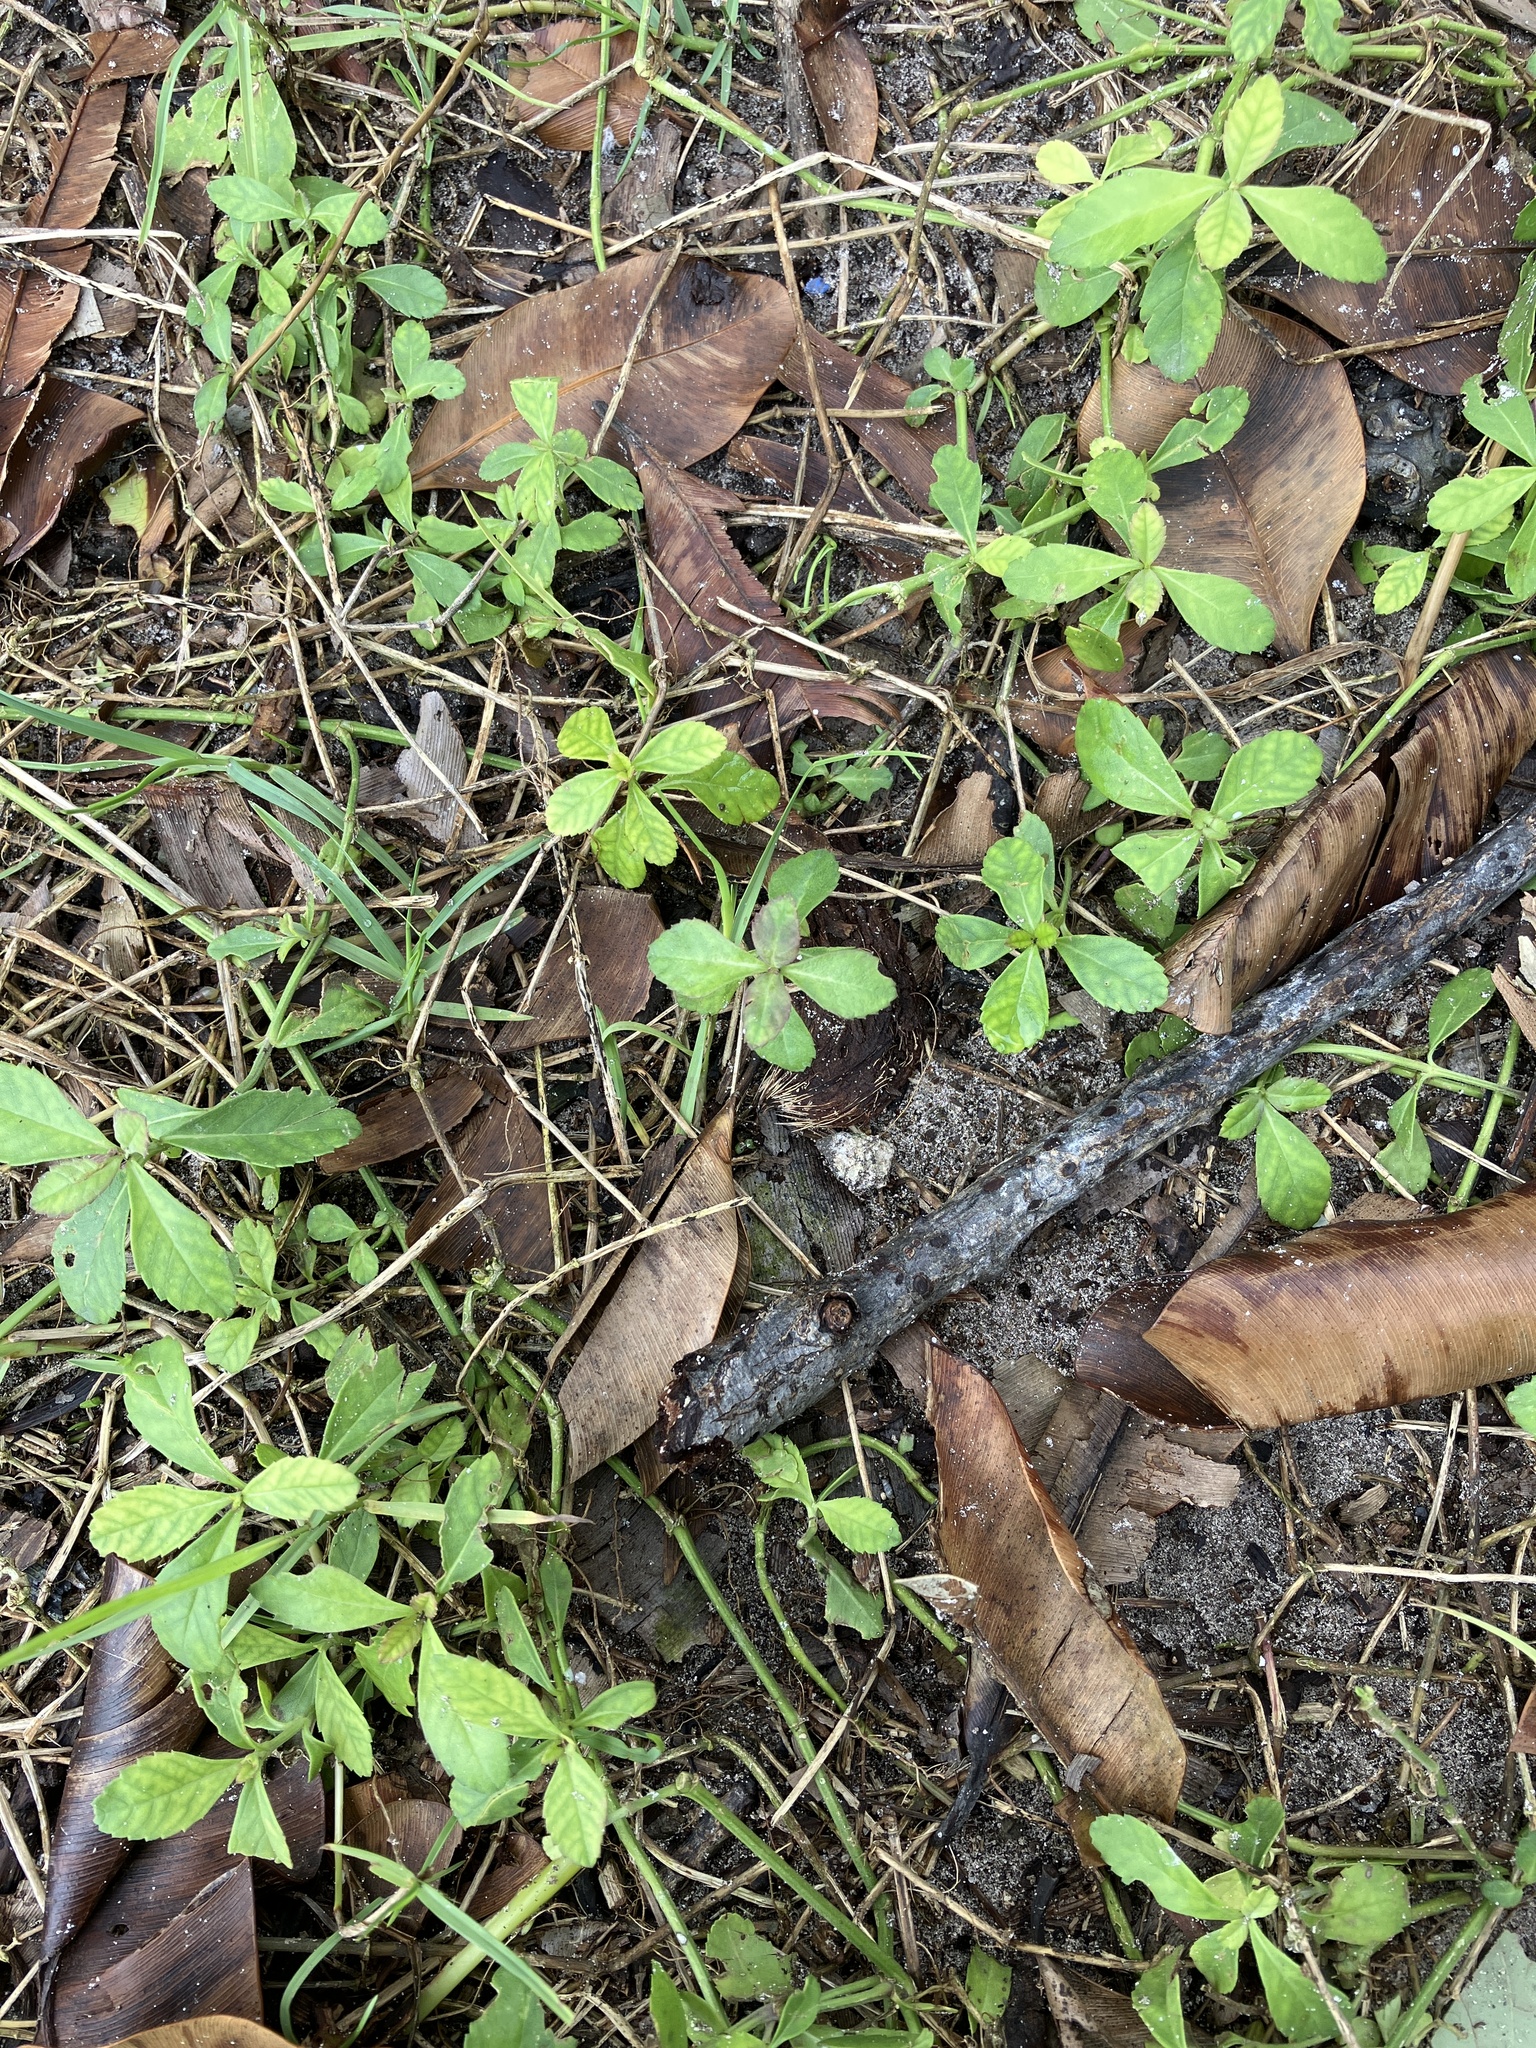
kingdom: Plantae
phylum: Tracheophyta
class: Magnoliopsida
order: Lamiales
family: Verbenaceae
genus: Phyla
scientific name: Phyla nodiflora
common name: Frogfruit
